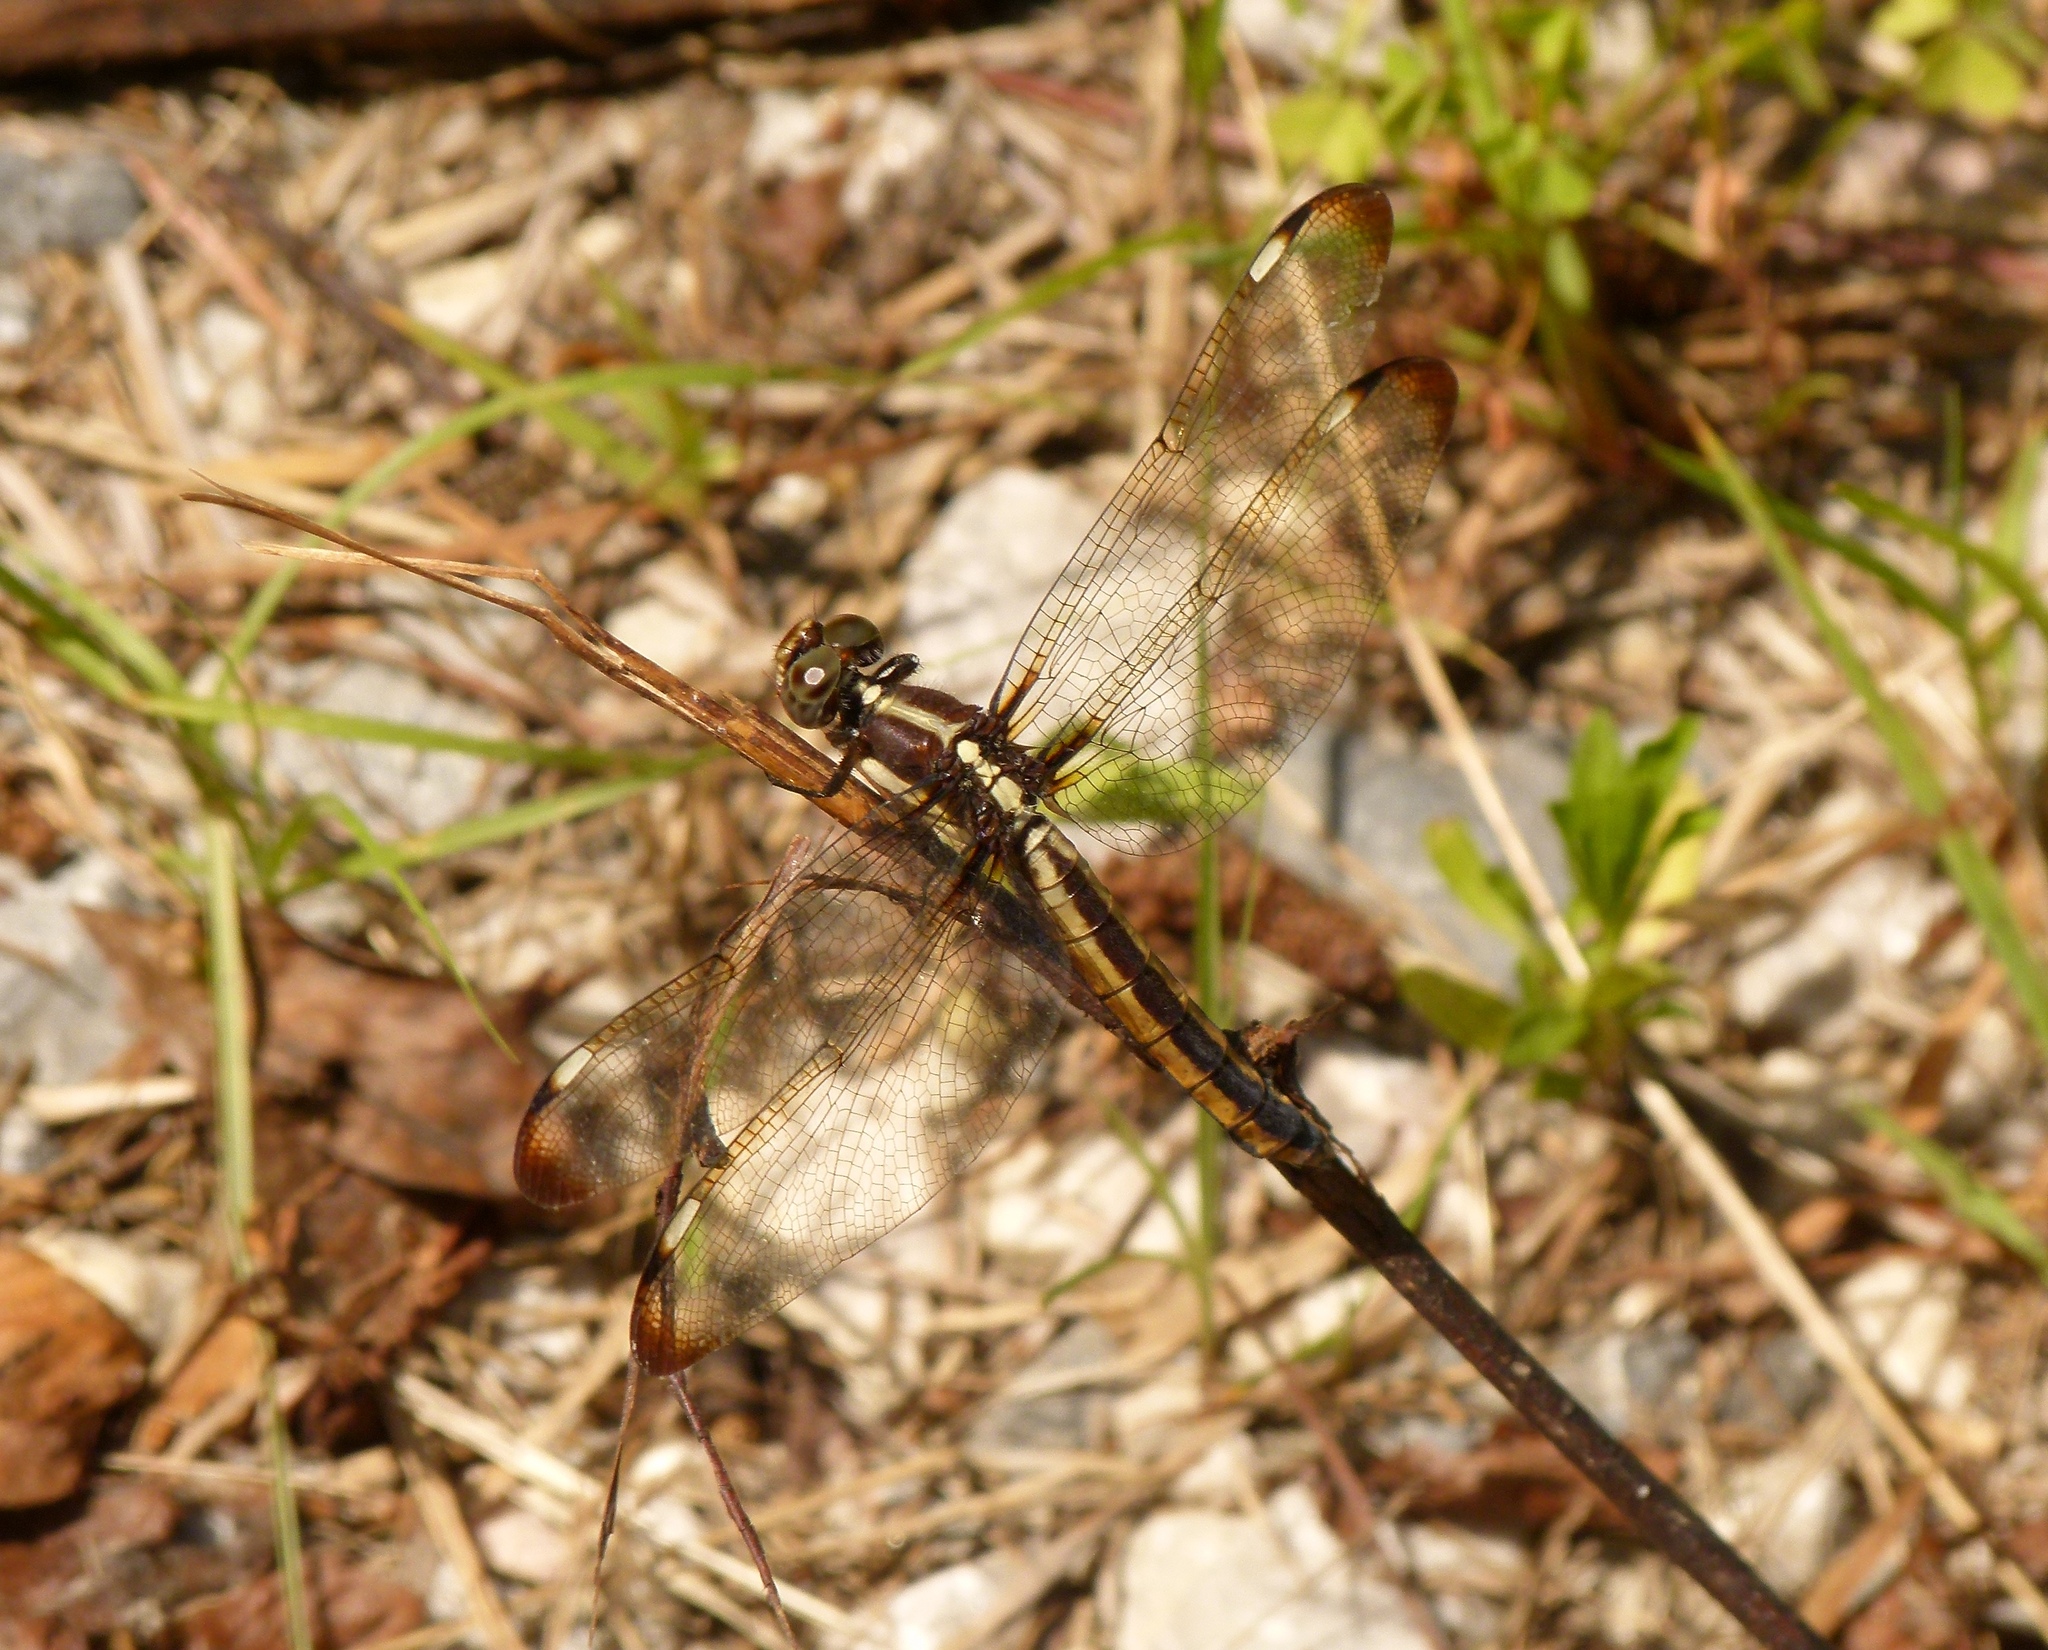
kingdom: Animalia
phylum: Arthropoda
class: Insecta
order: Odonata
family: Libellulidae
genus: Libellula
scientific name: Libellula cyanea
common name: Spangled skimmer
